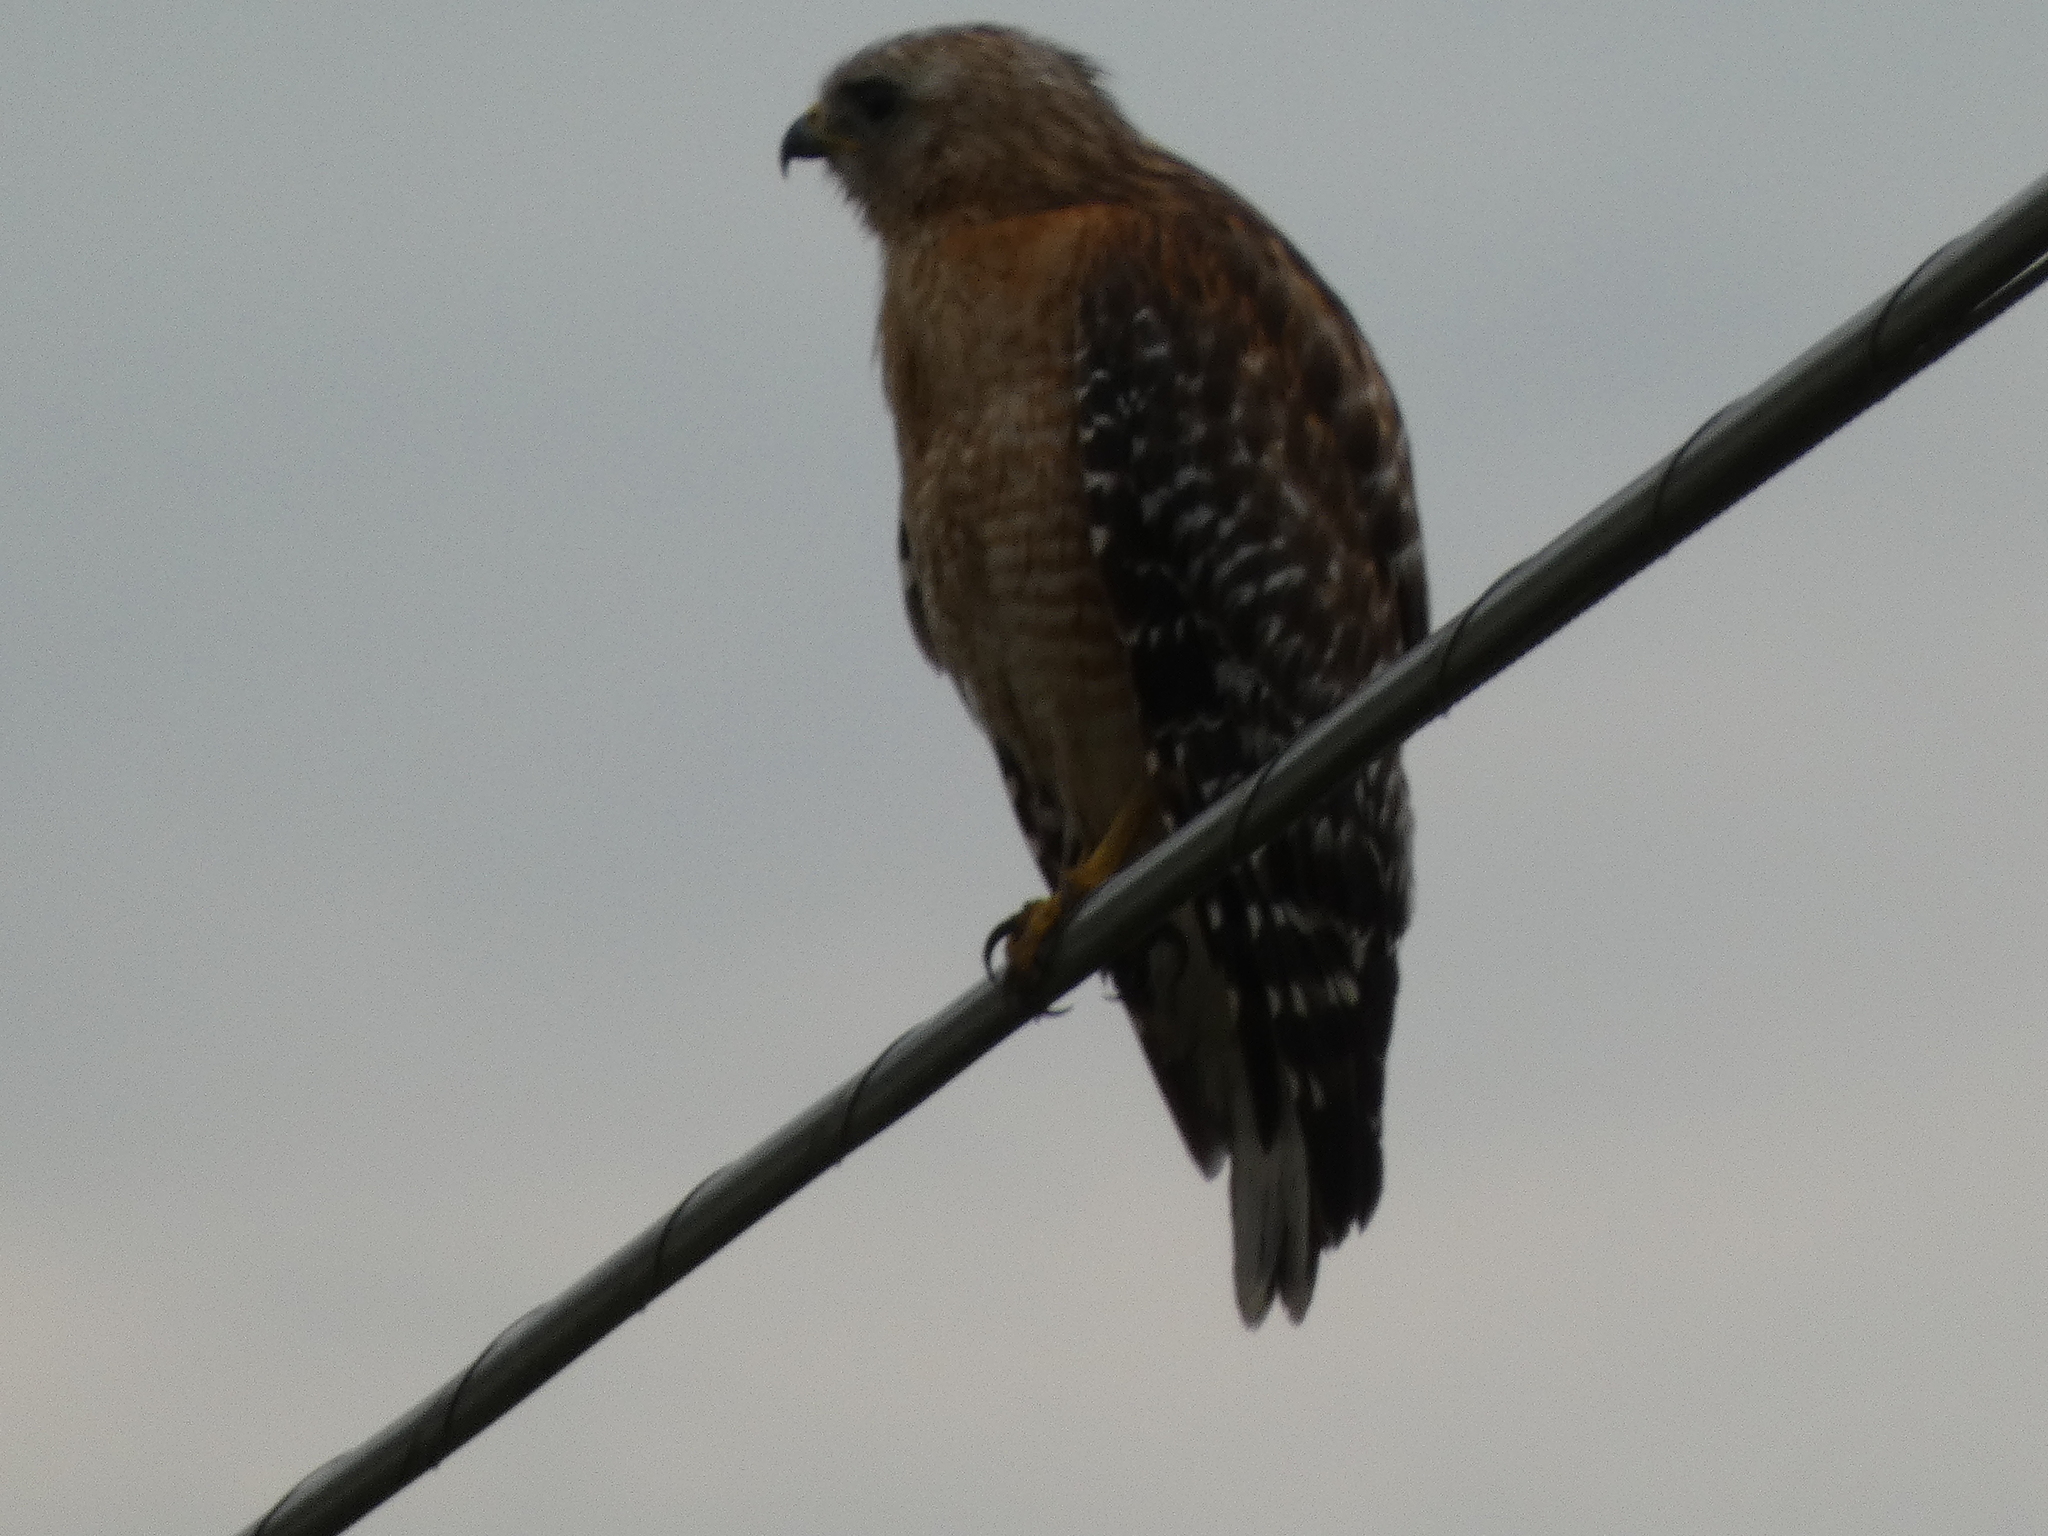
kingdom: Animalia
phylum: Chordata
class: Aves
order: Accipitriformes
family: Accipitridae
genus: Buteo
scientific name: Buteo lineatus
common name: Red-shouldered hawk
